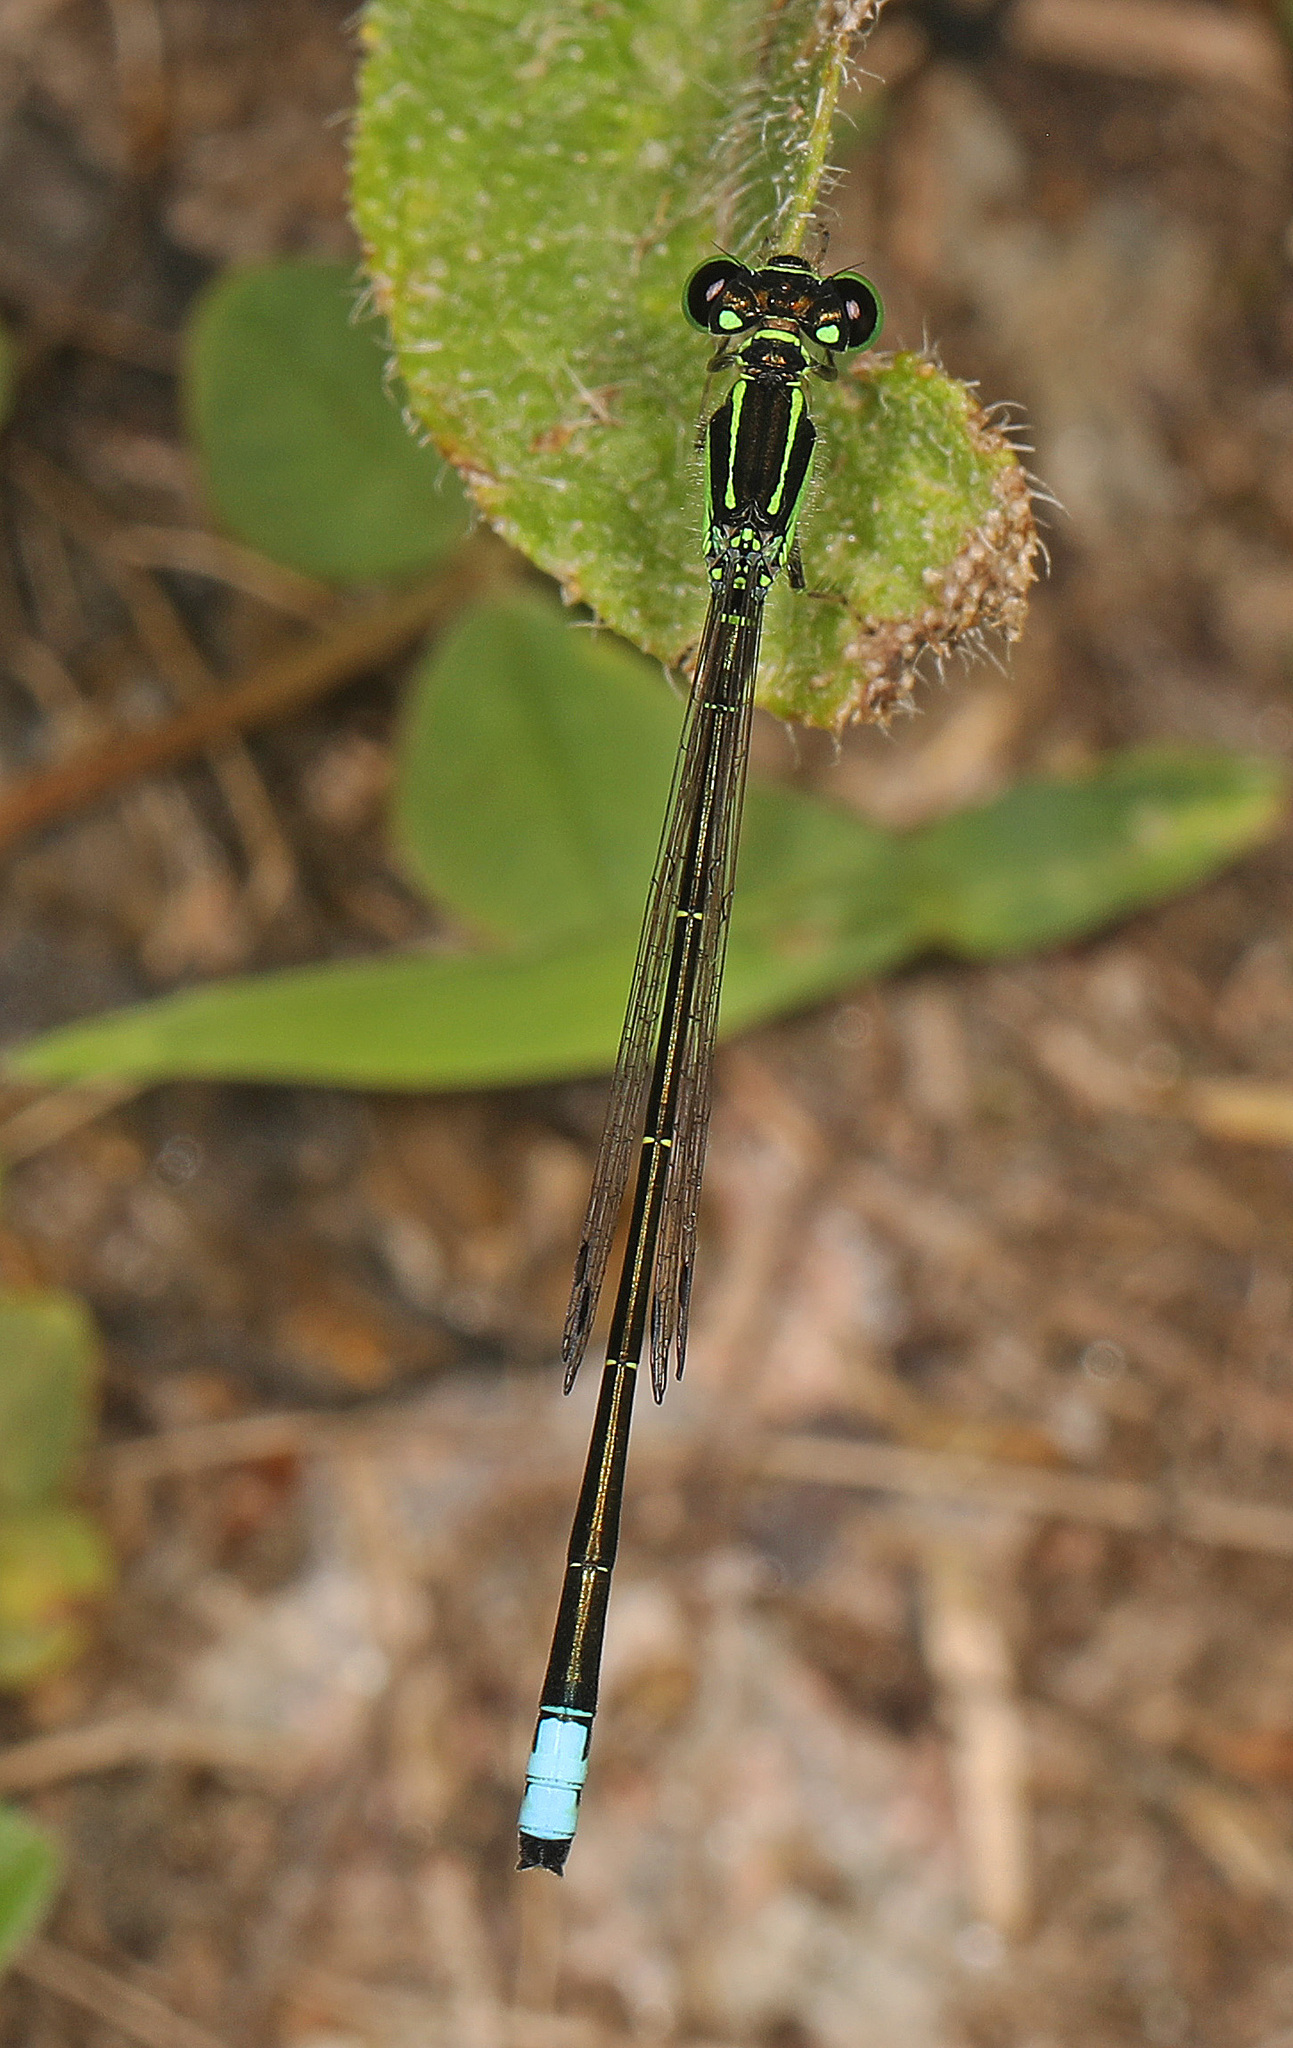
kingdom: Animalia
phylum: Arthropoda
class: Insecta
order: Odonata
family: Coenagrionidae
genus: Ischnura
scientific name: Ischnura verticalis
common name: Eastern forktail
